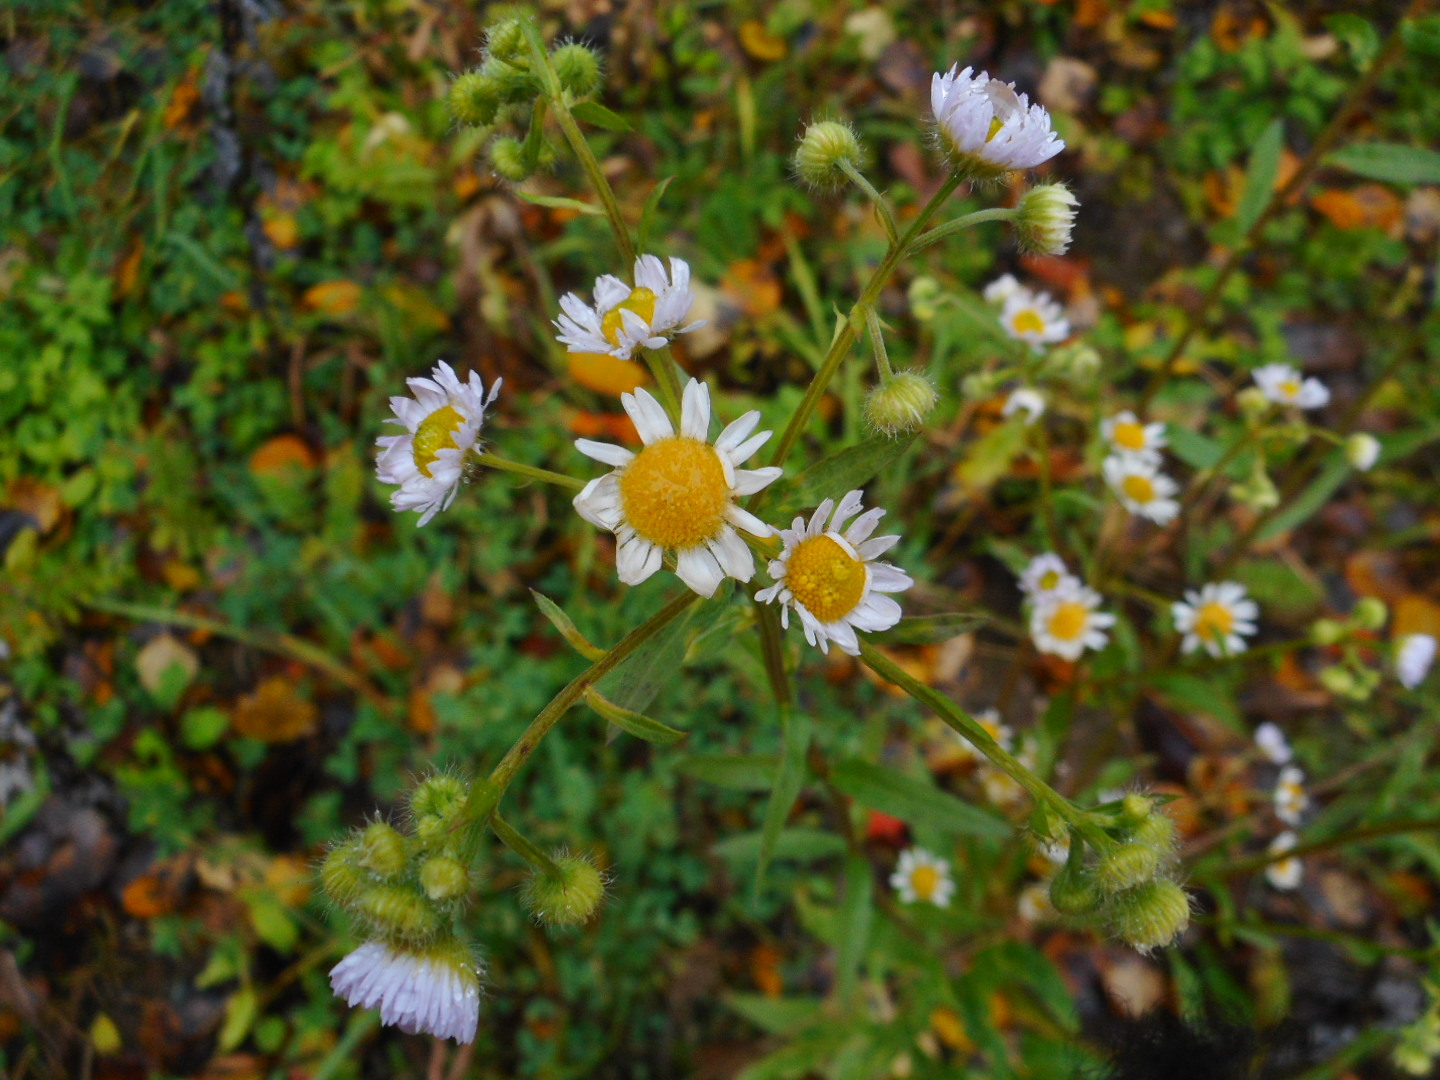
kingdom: Plantae
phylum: Tracheophyta
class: Magnoliopsida
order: Asterales
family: Asteraceae
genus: Erigeron
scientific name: Erigeron annuus
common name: Tall fleabane
